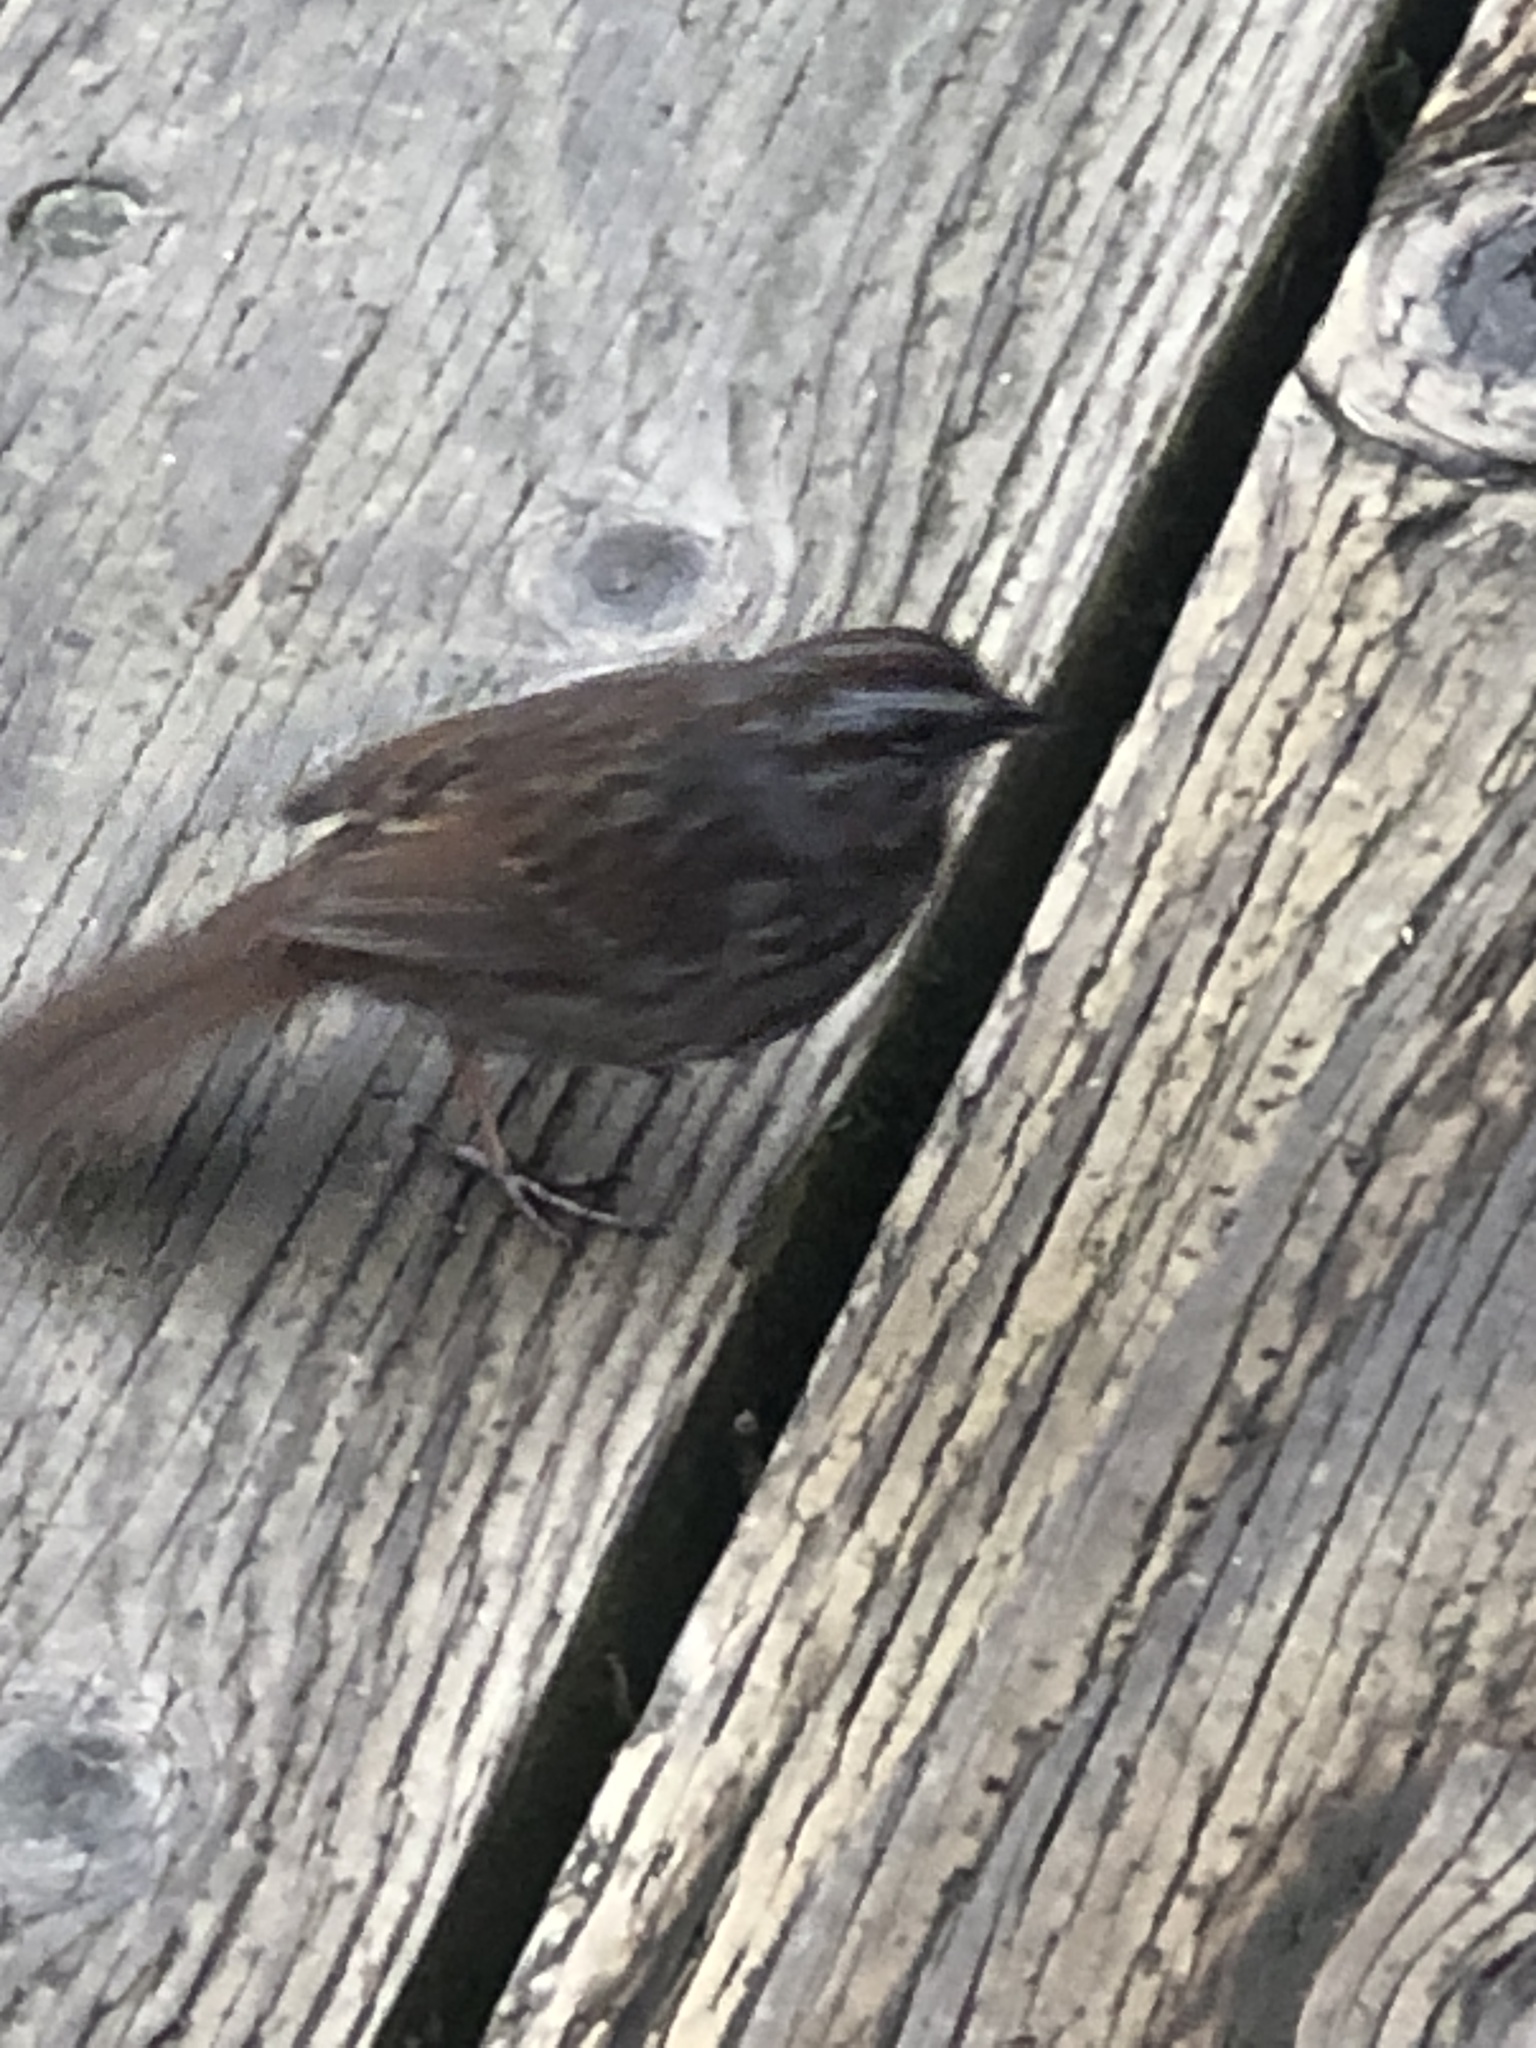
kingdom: Animalia
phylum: Chordata
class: Aves
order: Passeriformes
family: Passerellidae
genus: Melospiza
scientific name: Melospiza melodia
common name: Song sparrow
